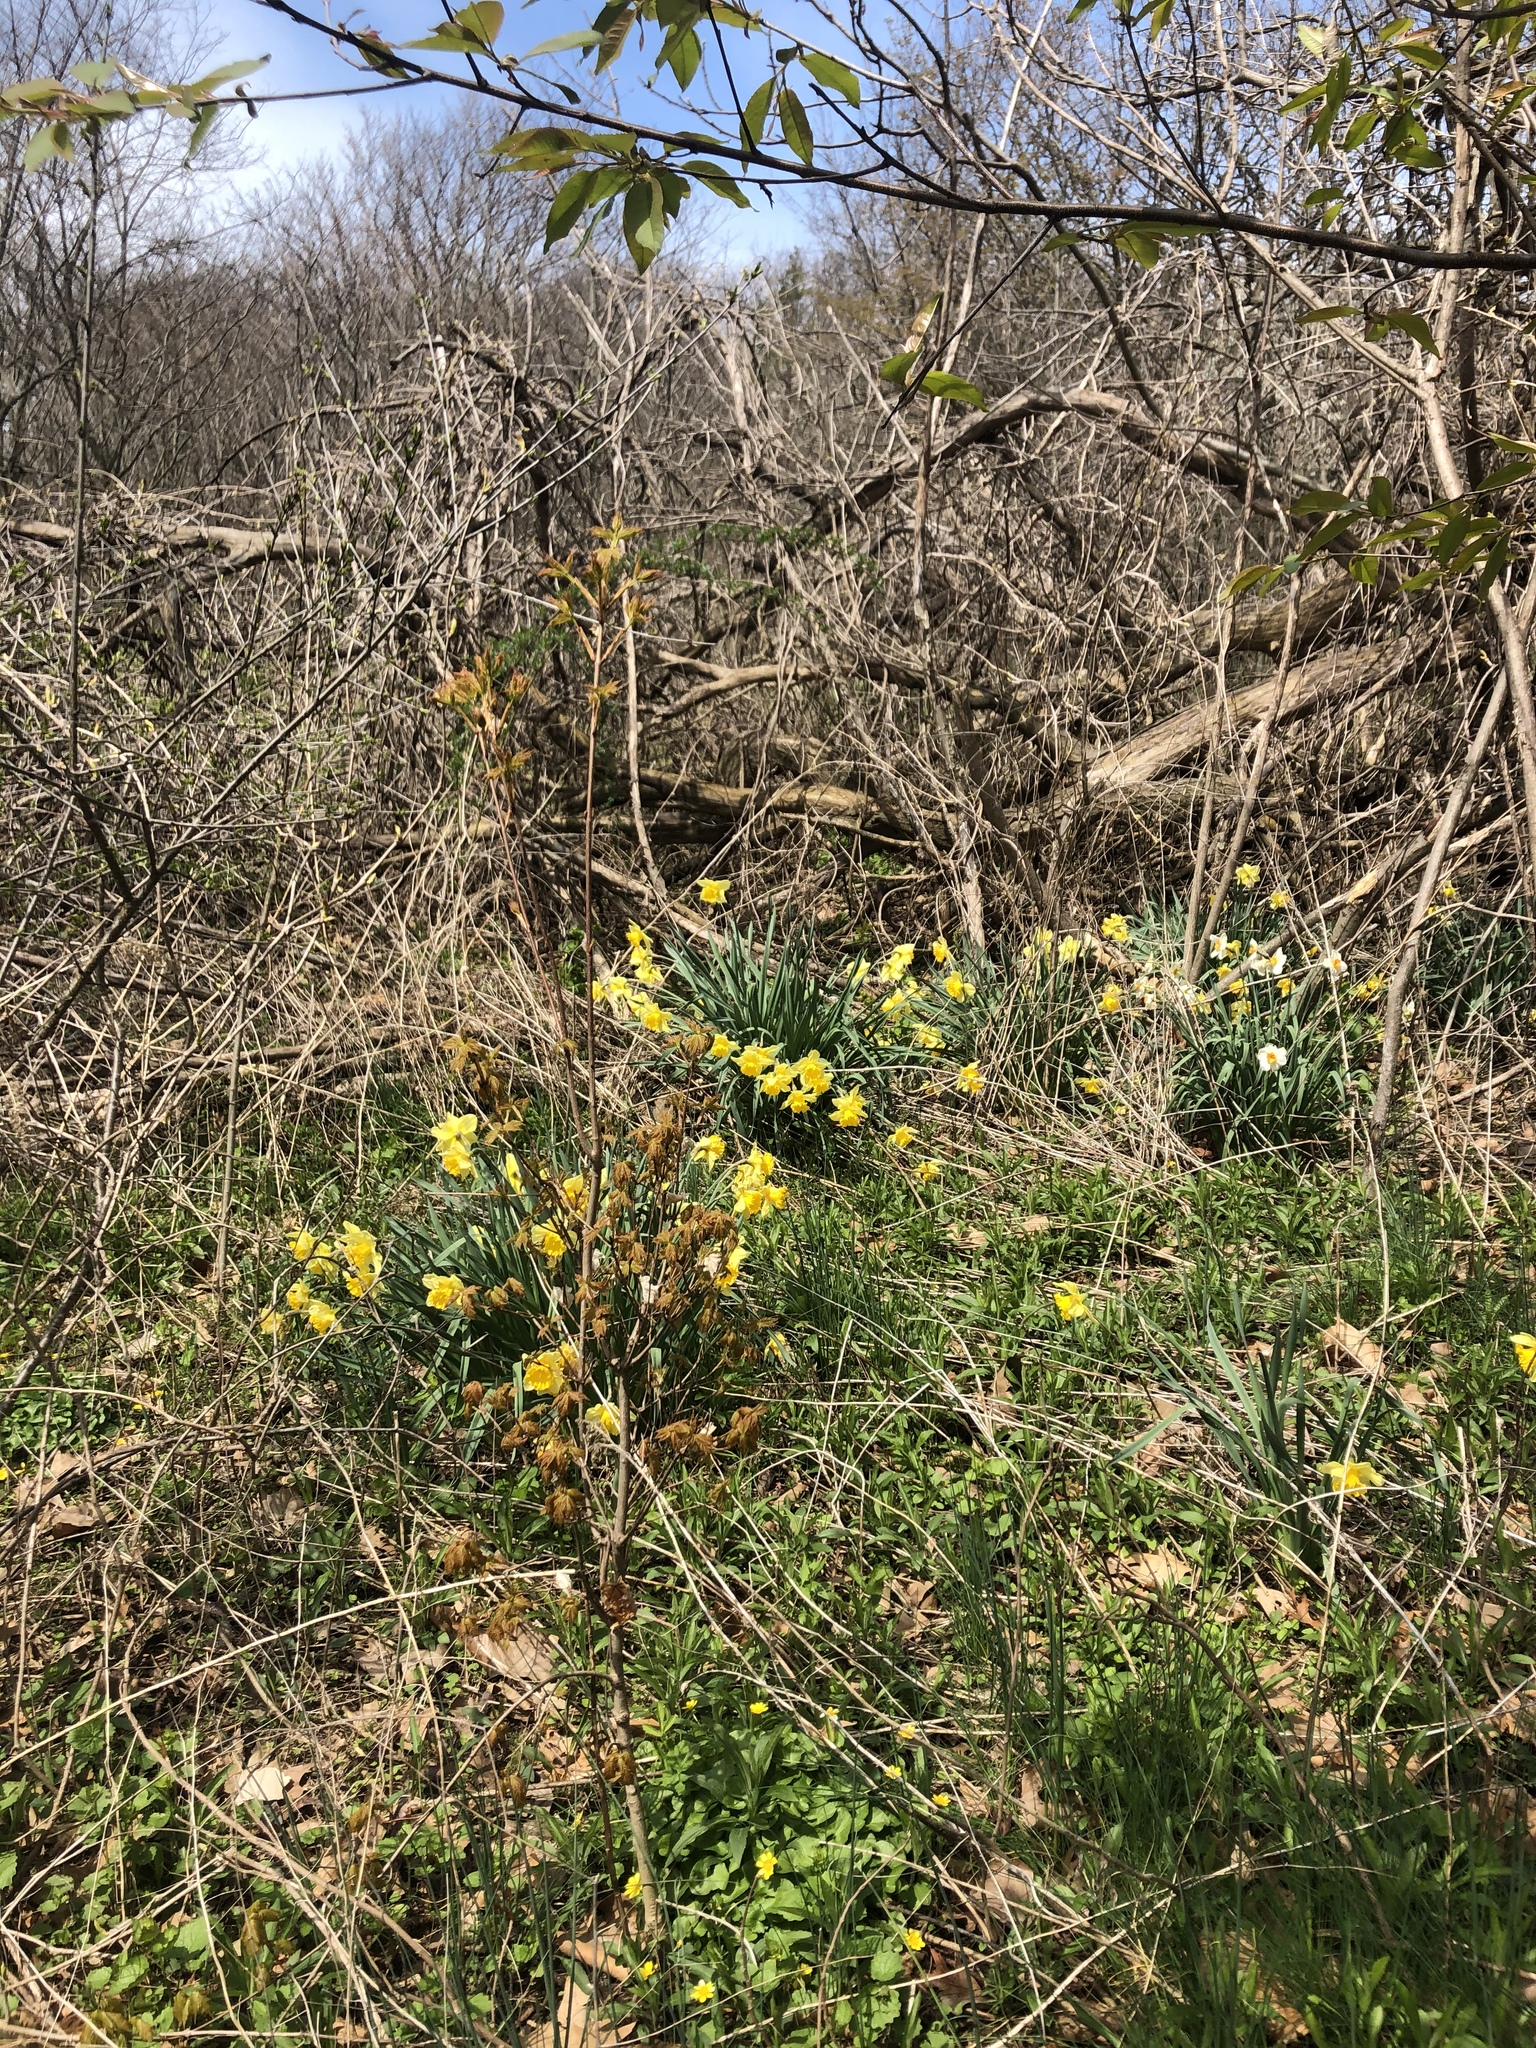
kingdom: Plantae
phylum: Tracheophyta
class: Liliopsida
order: Asparagales
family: Amaryllidaceae
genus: Narcissus
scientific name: Narcissus pseudonarcissus
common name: Daffodil
